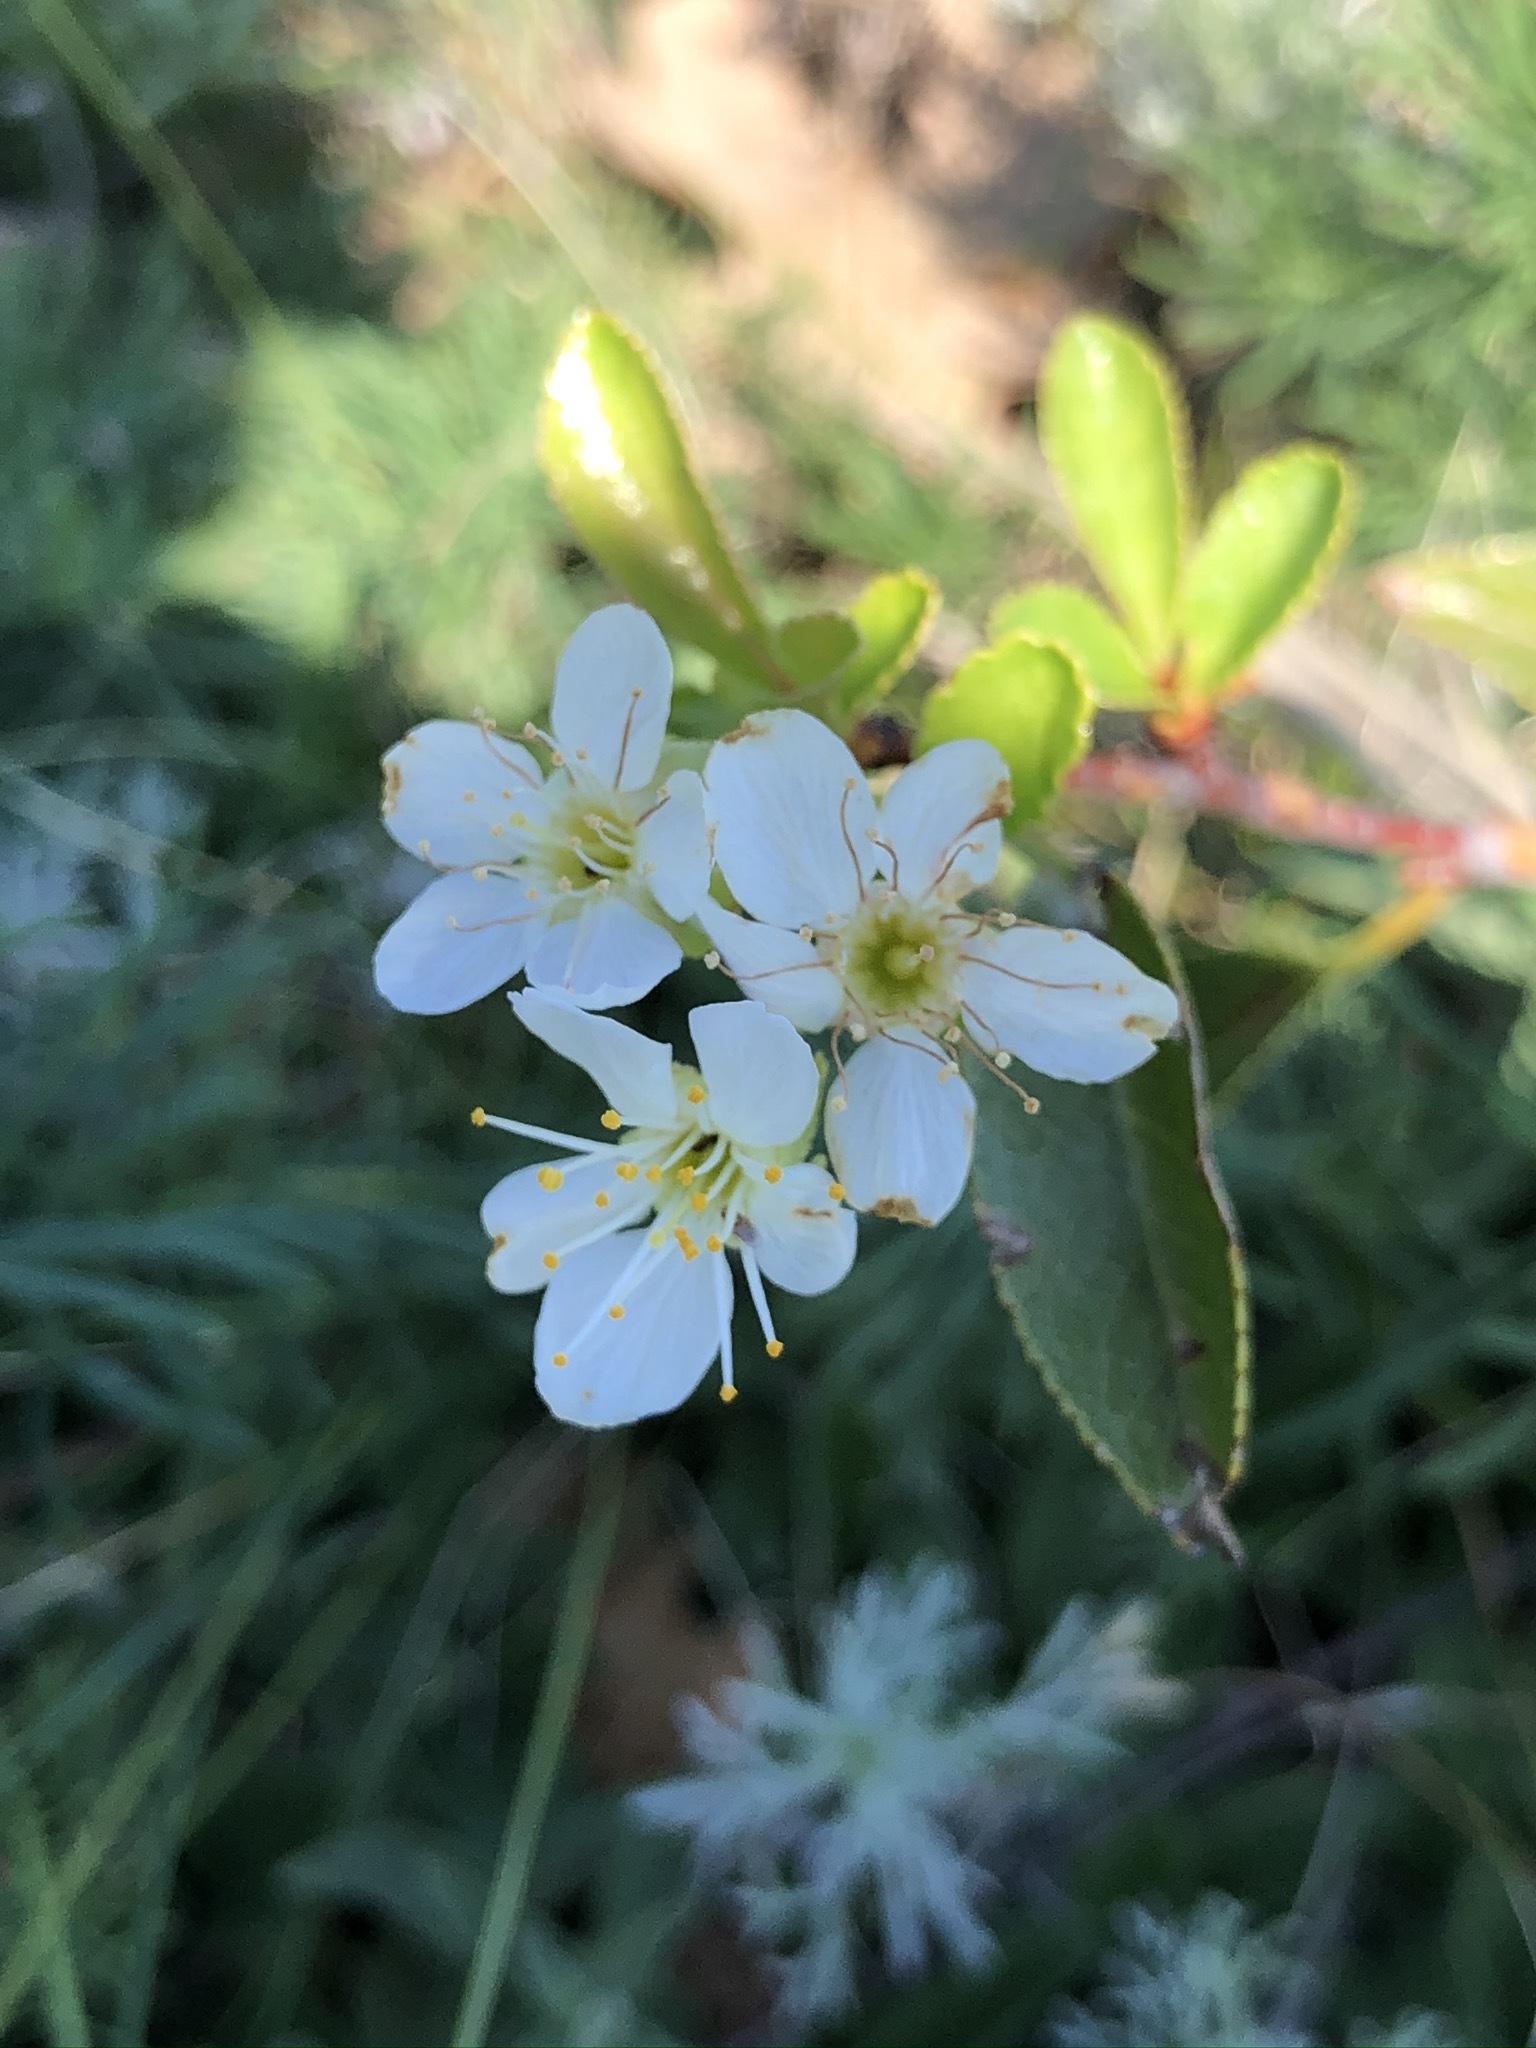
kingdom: Plantae
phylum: Tracheophyta
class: Magnoliopsida
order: Rosales
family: Rosaceae
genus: Prunus
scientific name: Prunus fruticosa
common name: European dwarf cherry
